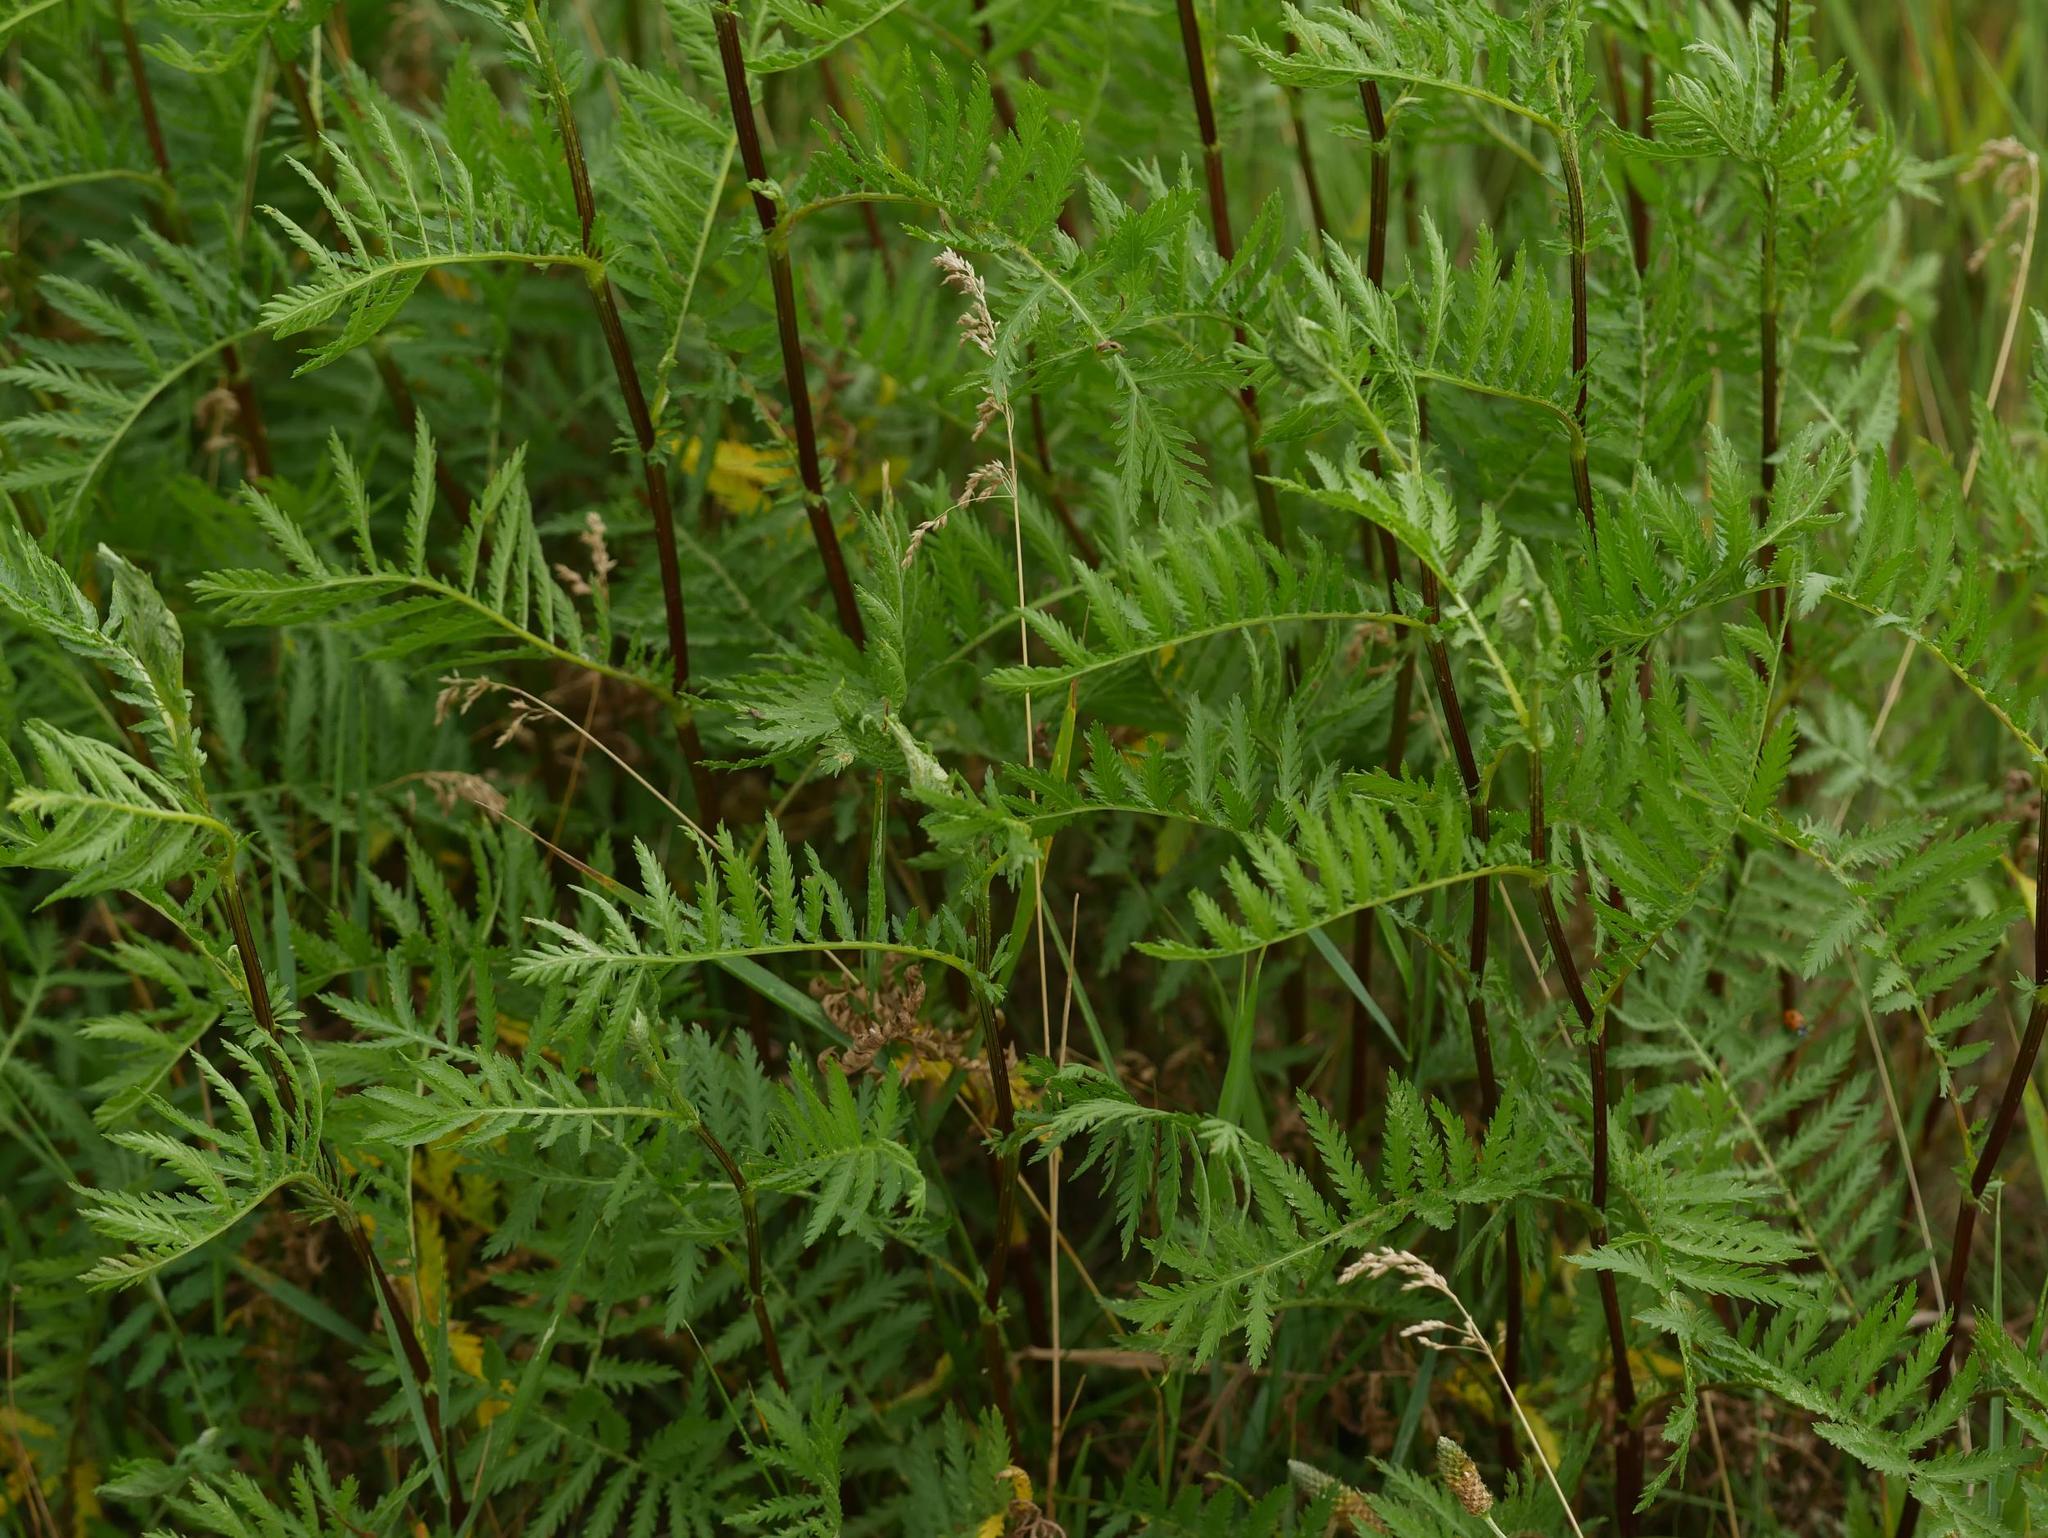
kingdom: Plantae
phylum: Tracheophyta
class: Magnoliopsida
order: Asterales
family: Asteraceae
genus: Tanacetum
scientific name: Tanacetum vulgare
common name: Common tansy
